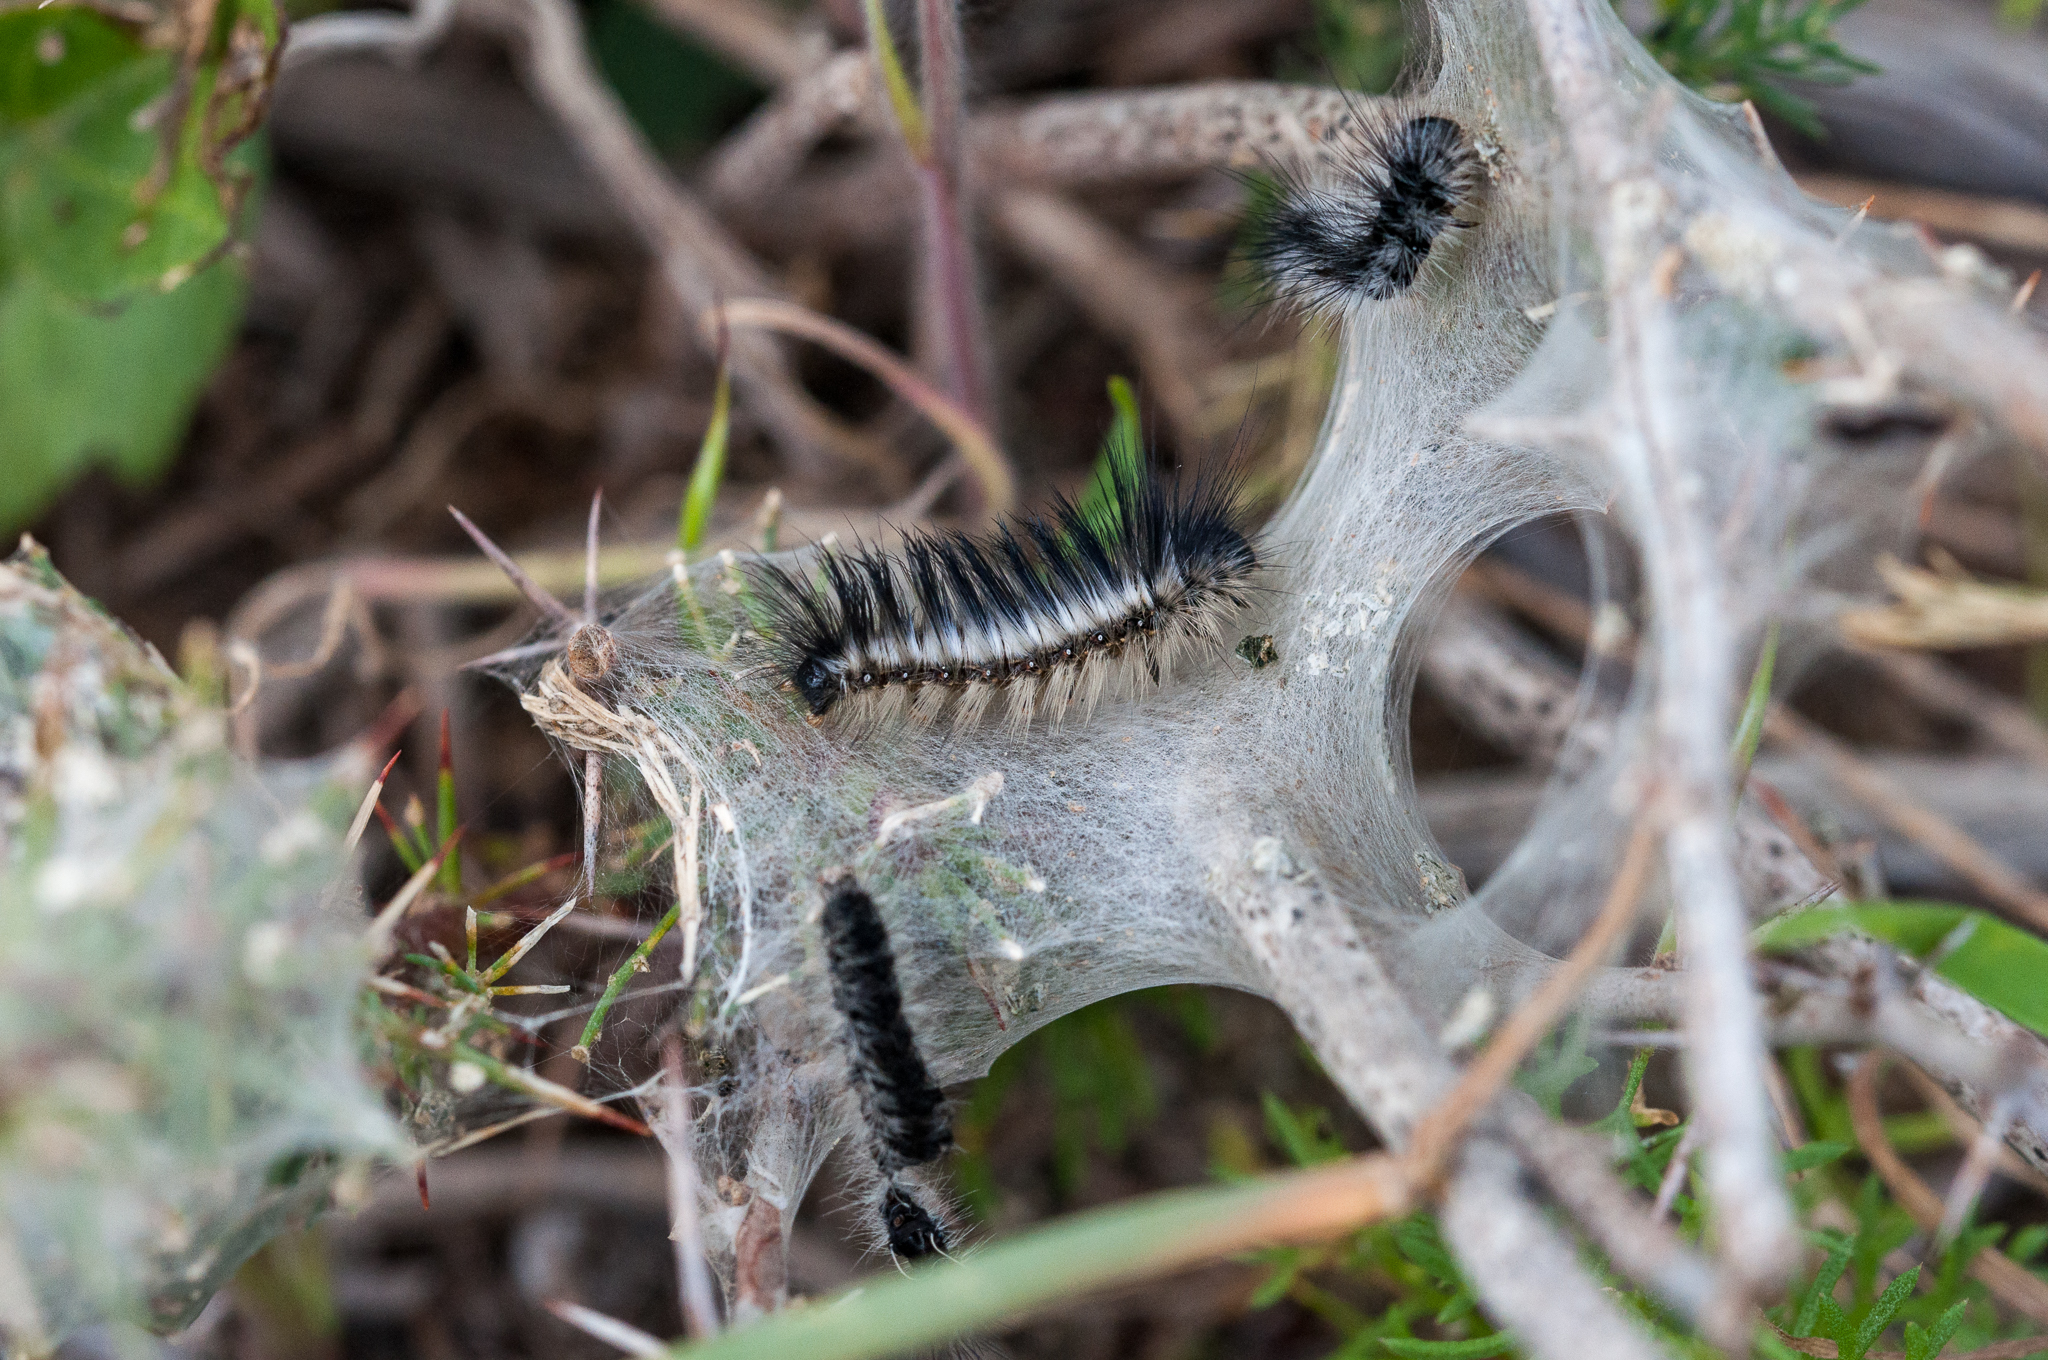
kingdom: Animalia
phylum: Arthropoda
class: Insecta
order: Lepidoptera
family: Eupterotidae
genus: Rhabdosia
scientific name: Rhabdosia vaninia
